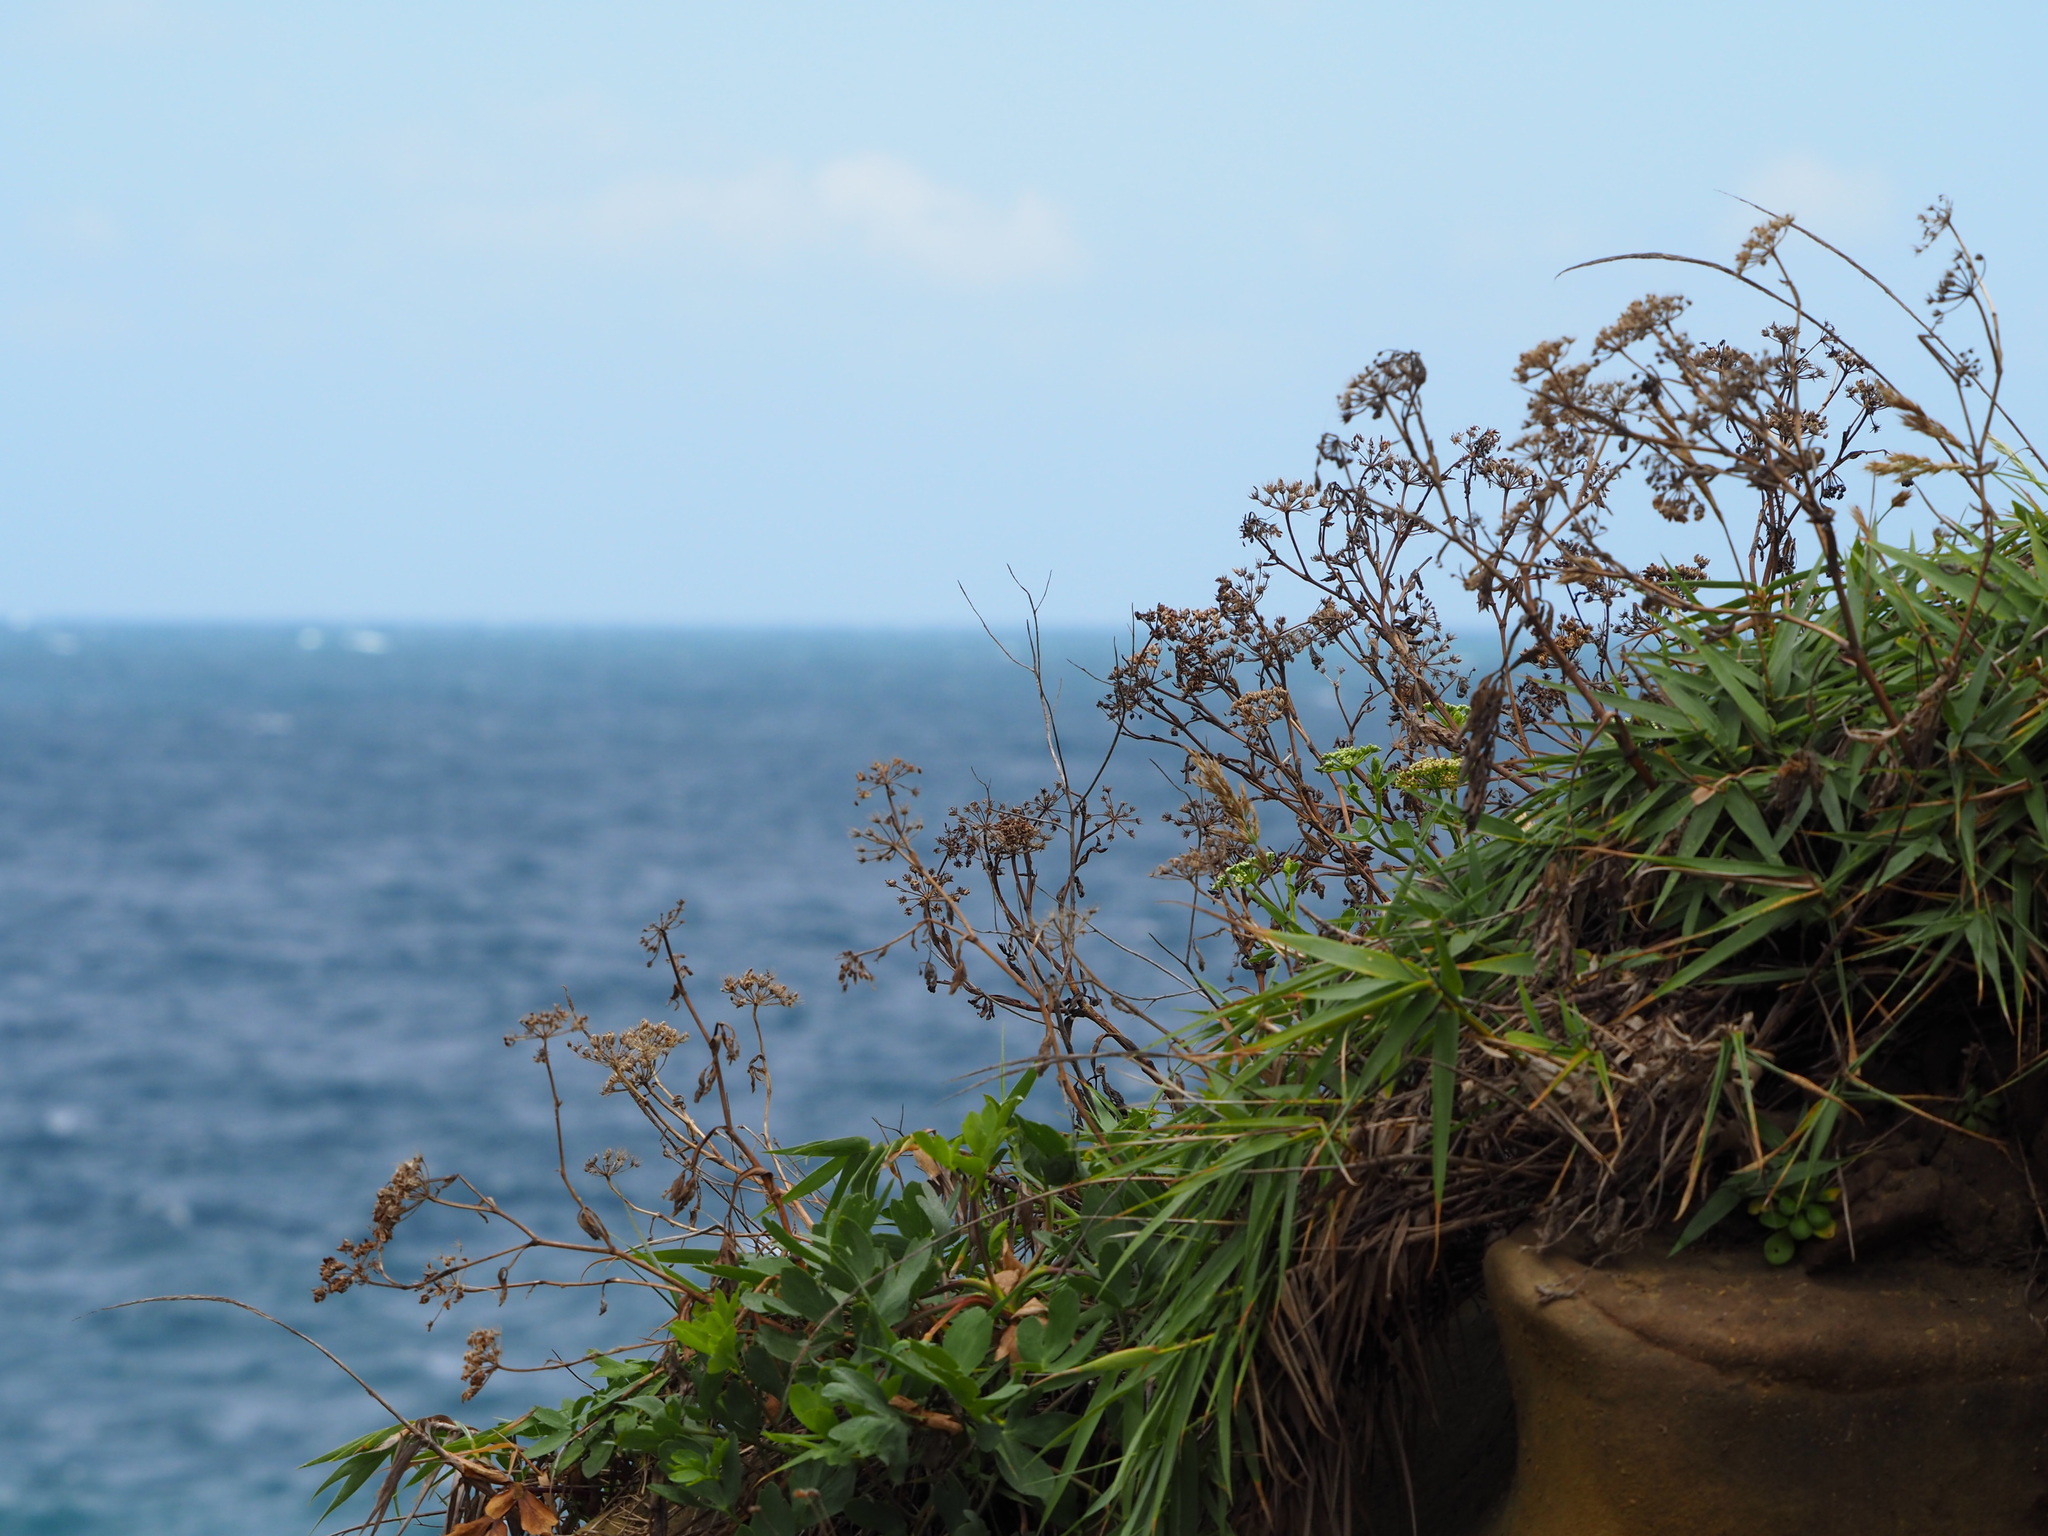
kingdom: Plantae
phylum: Tracheophyta
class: Magnoliopsida
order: Apiales
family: Apiaceae
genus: Peucedanum
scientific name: Peucedanum japonicum
